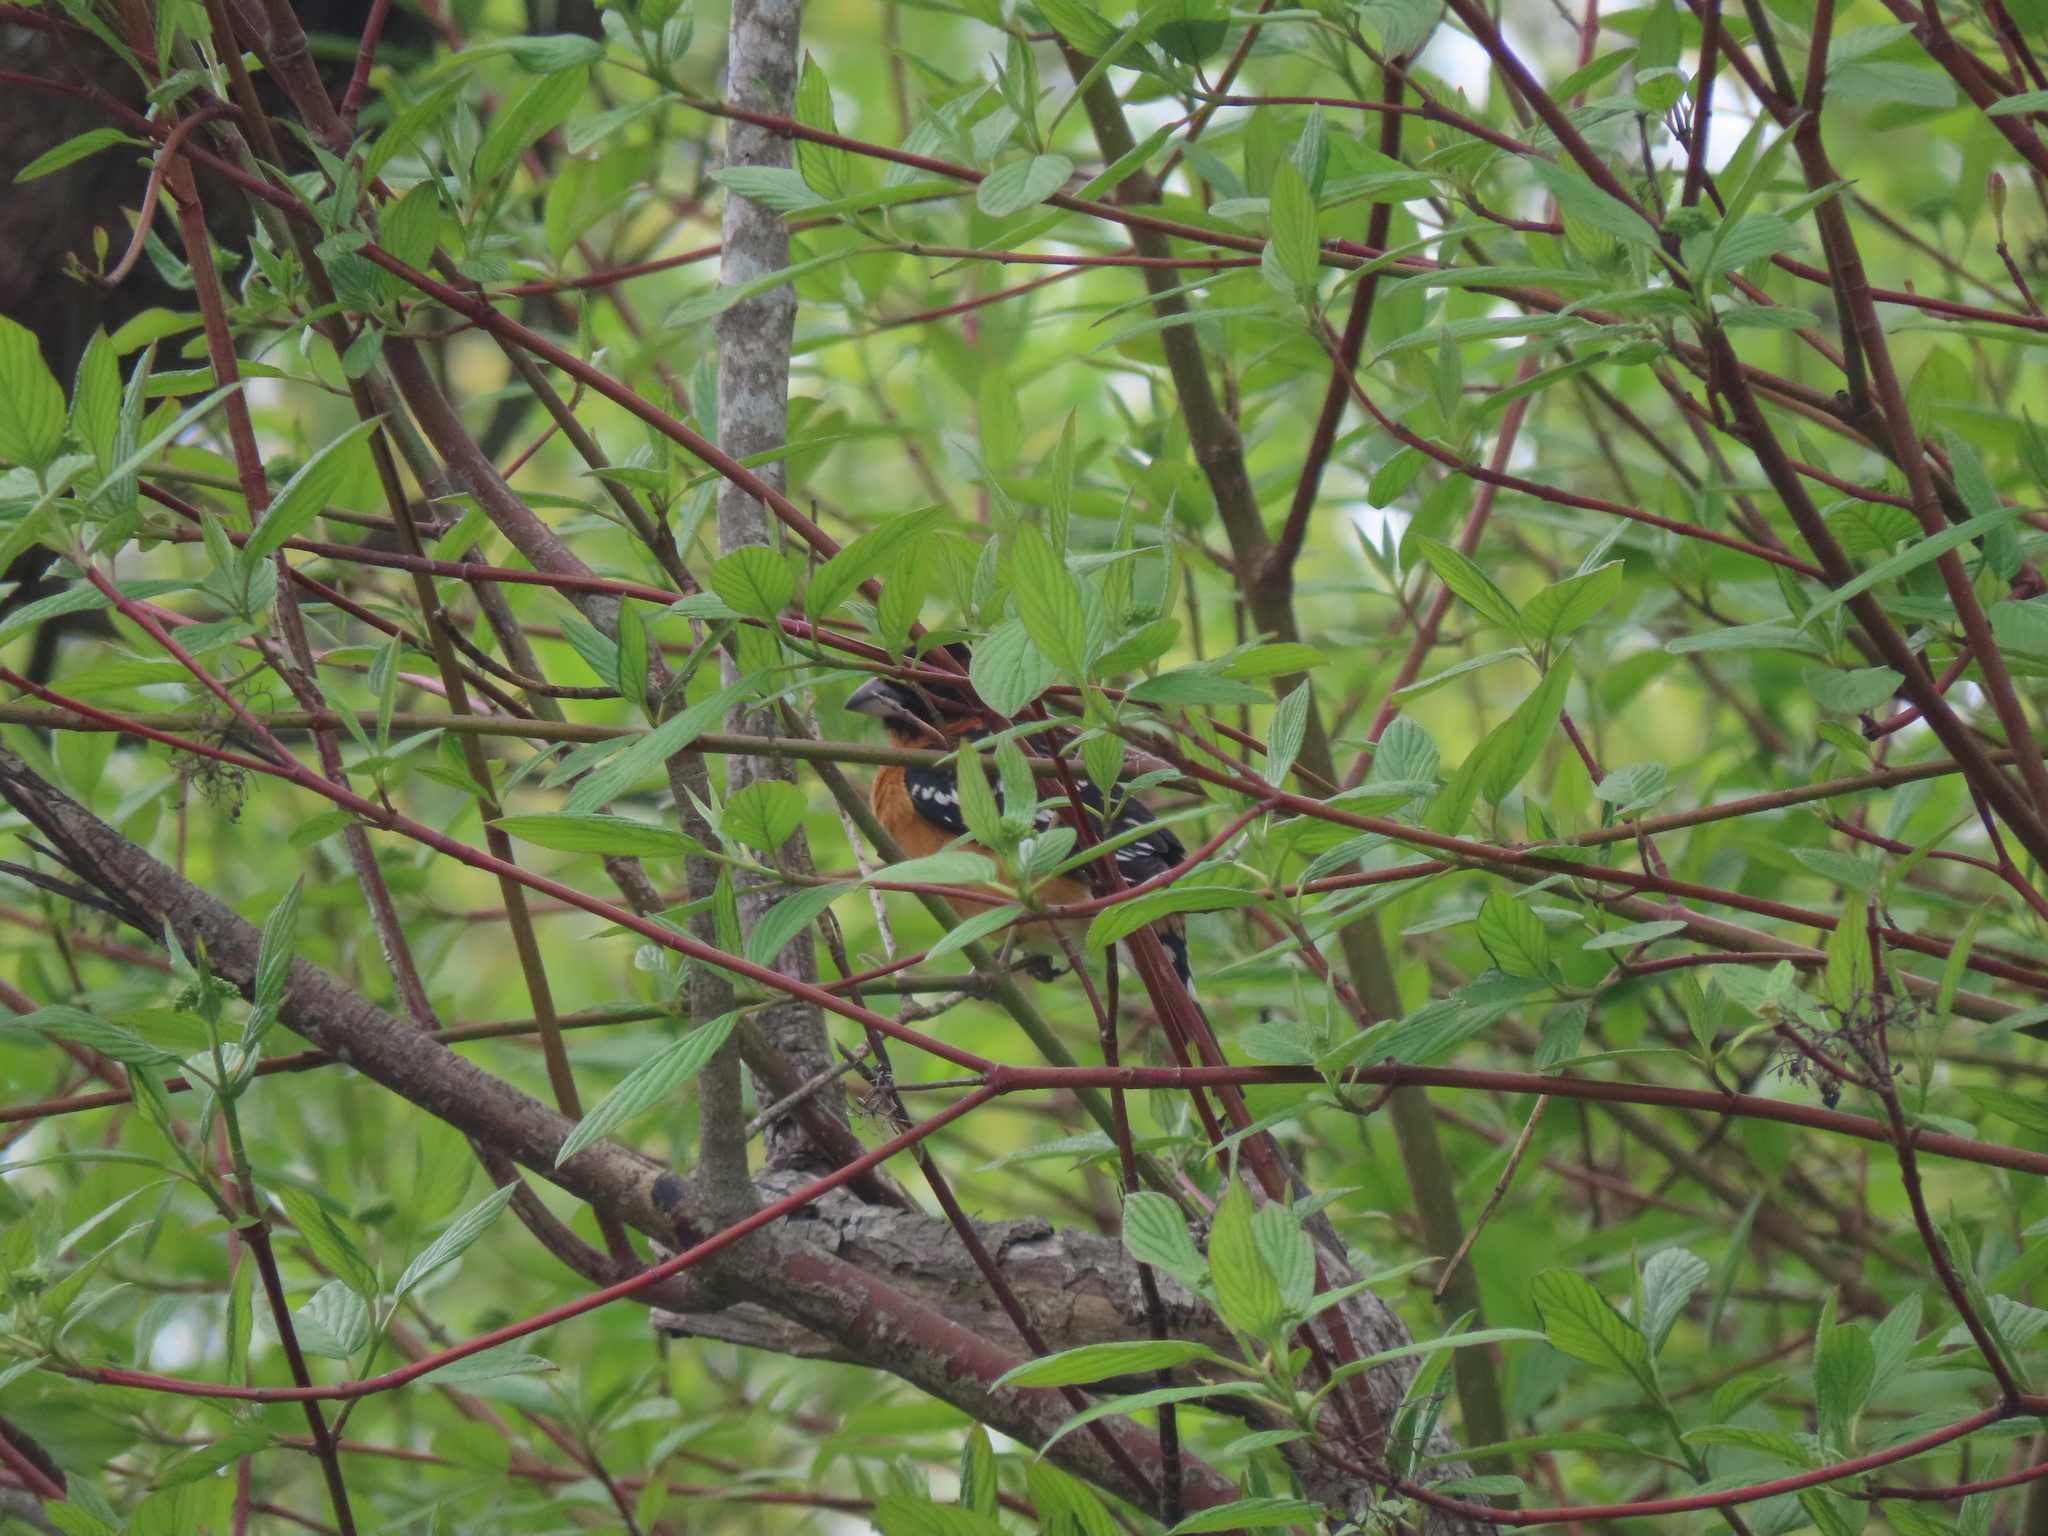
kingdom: Animalia
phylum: Chordata
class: Aves
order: Passeriformes
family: Cardinalidae
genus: Pheucticus
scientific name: Pheucticus melanocephalus
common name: Black-headed grosbeak
